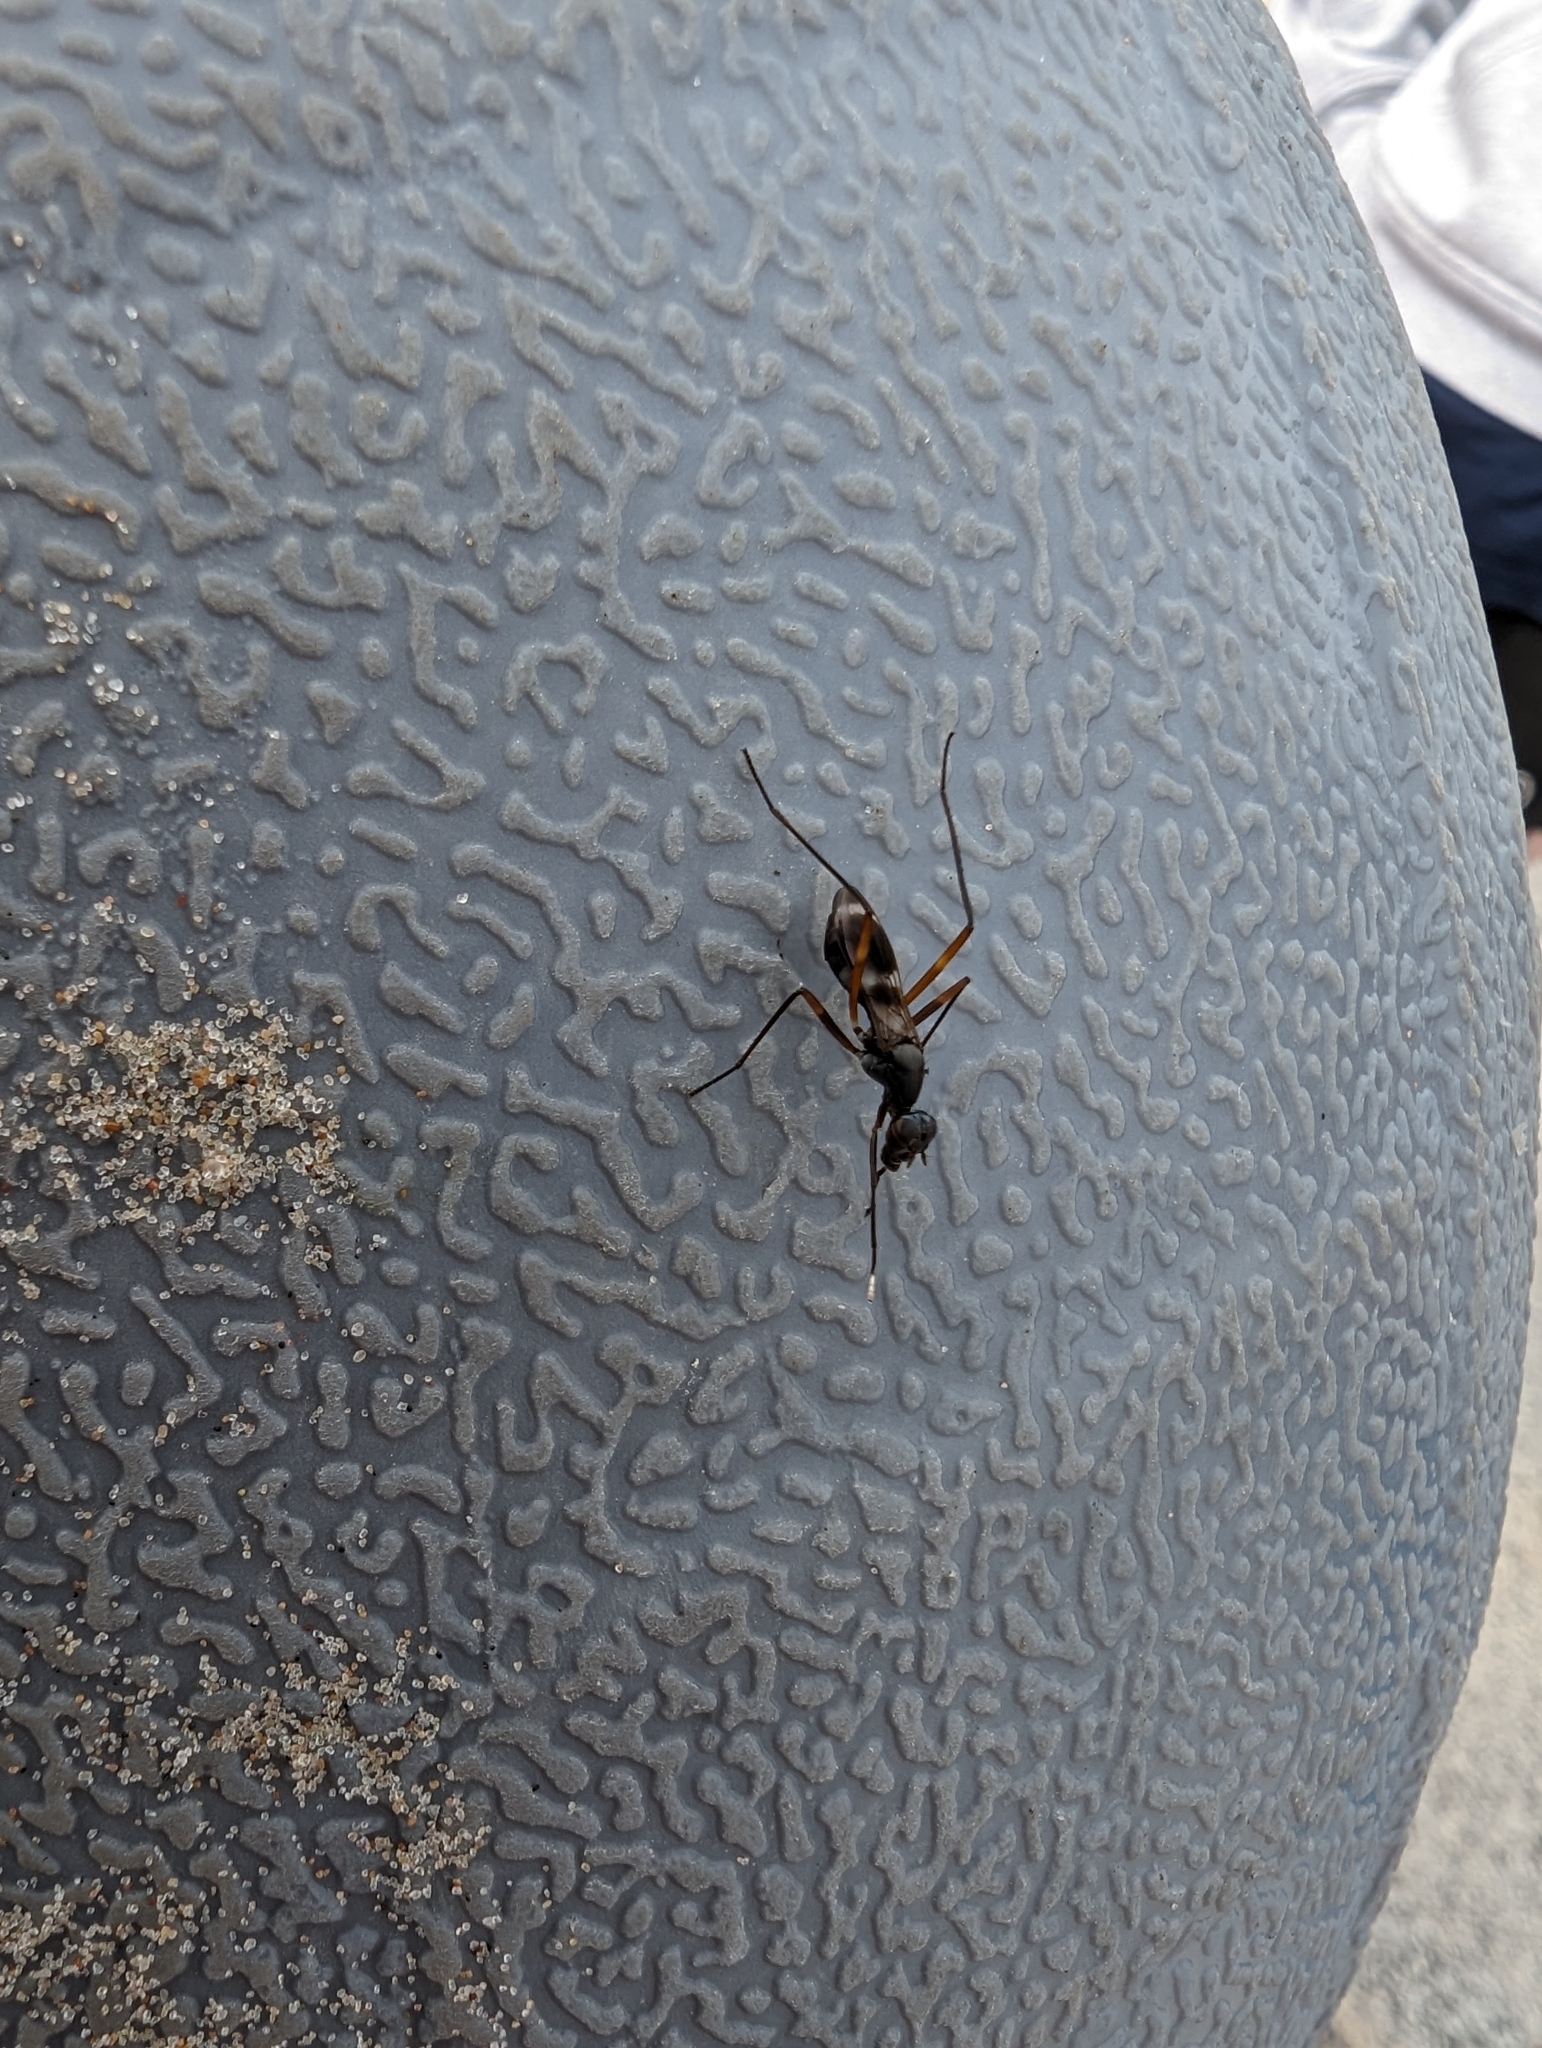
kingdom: Animalia
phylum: Arthropoda
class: Insecta
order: Diptera
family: Micropezidae
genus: Taeniaptera
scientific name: Taeniaptera trivittata
